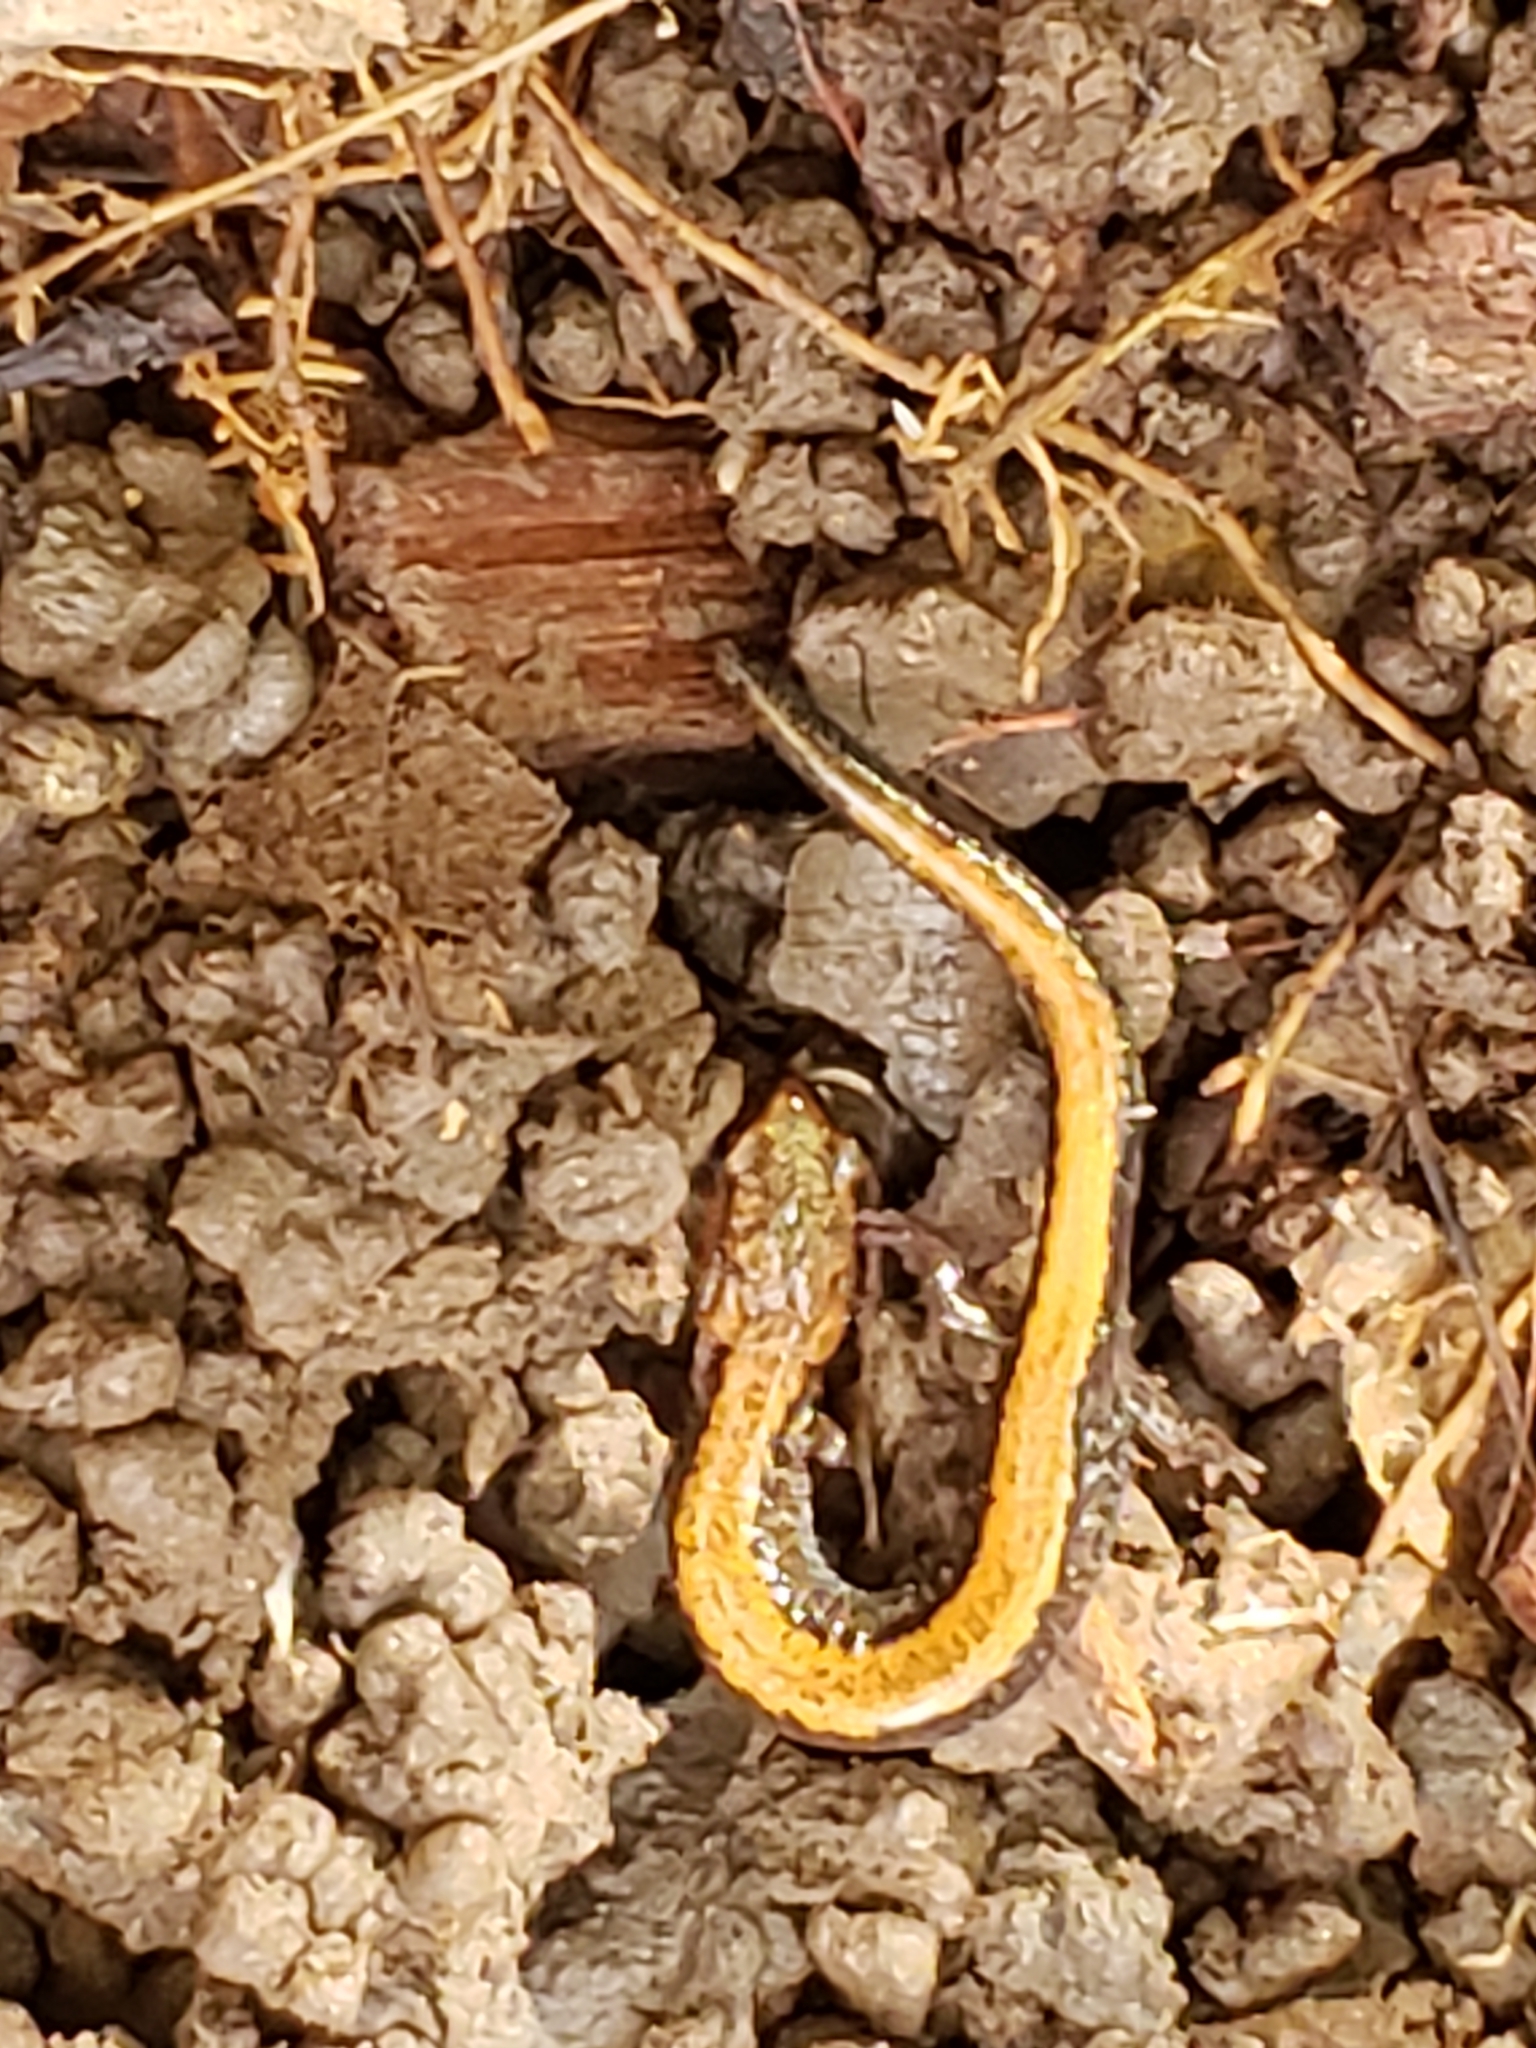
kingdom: Animalia
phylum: Chordata
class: Amphibia
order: Caudata
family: Plethodontidae
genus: Plethodon
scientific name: Plethodon cinereus
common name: Redback salamander
